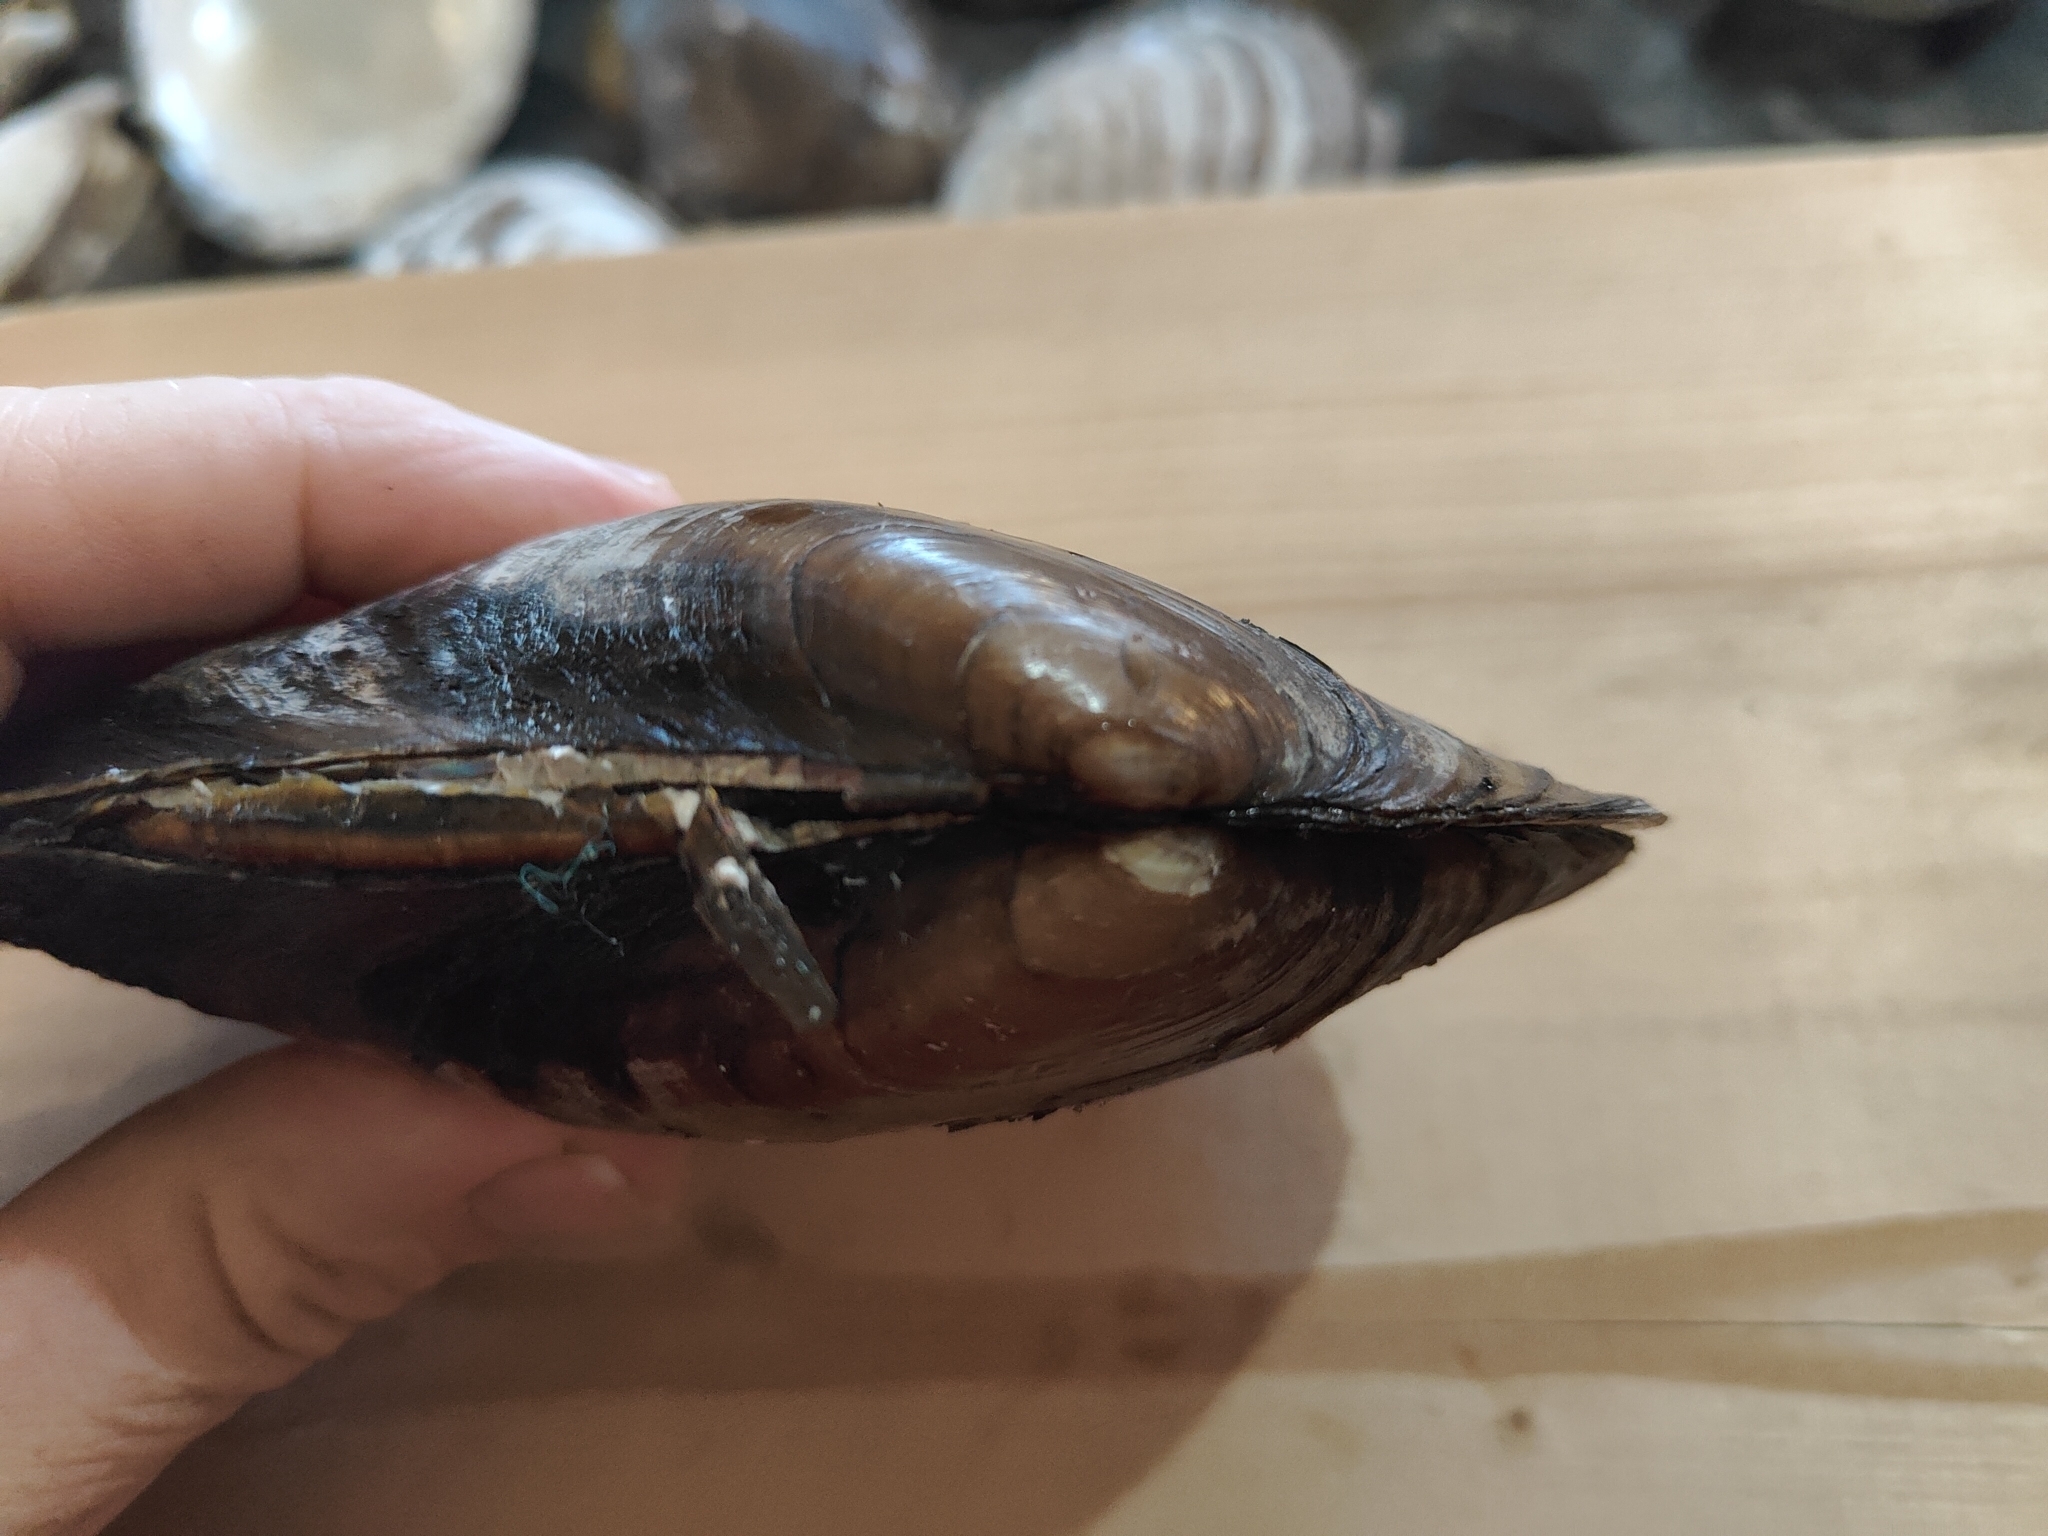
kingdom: Animalia
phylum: Mollusca
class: Bivalvia
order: Unionida
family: Unionidae
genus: Potamilus
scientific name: Potamilus fragilis
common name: Fragile papershell
